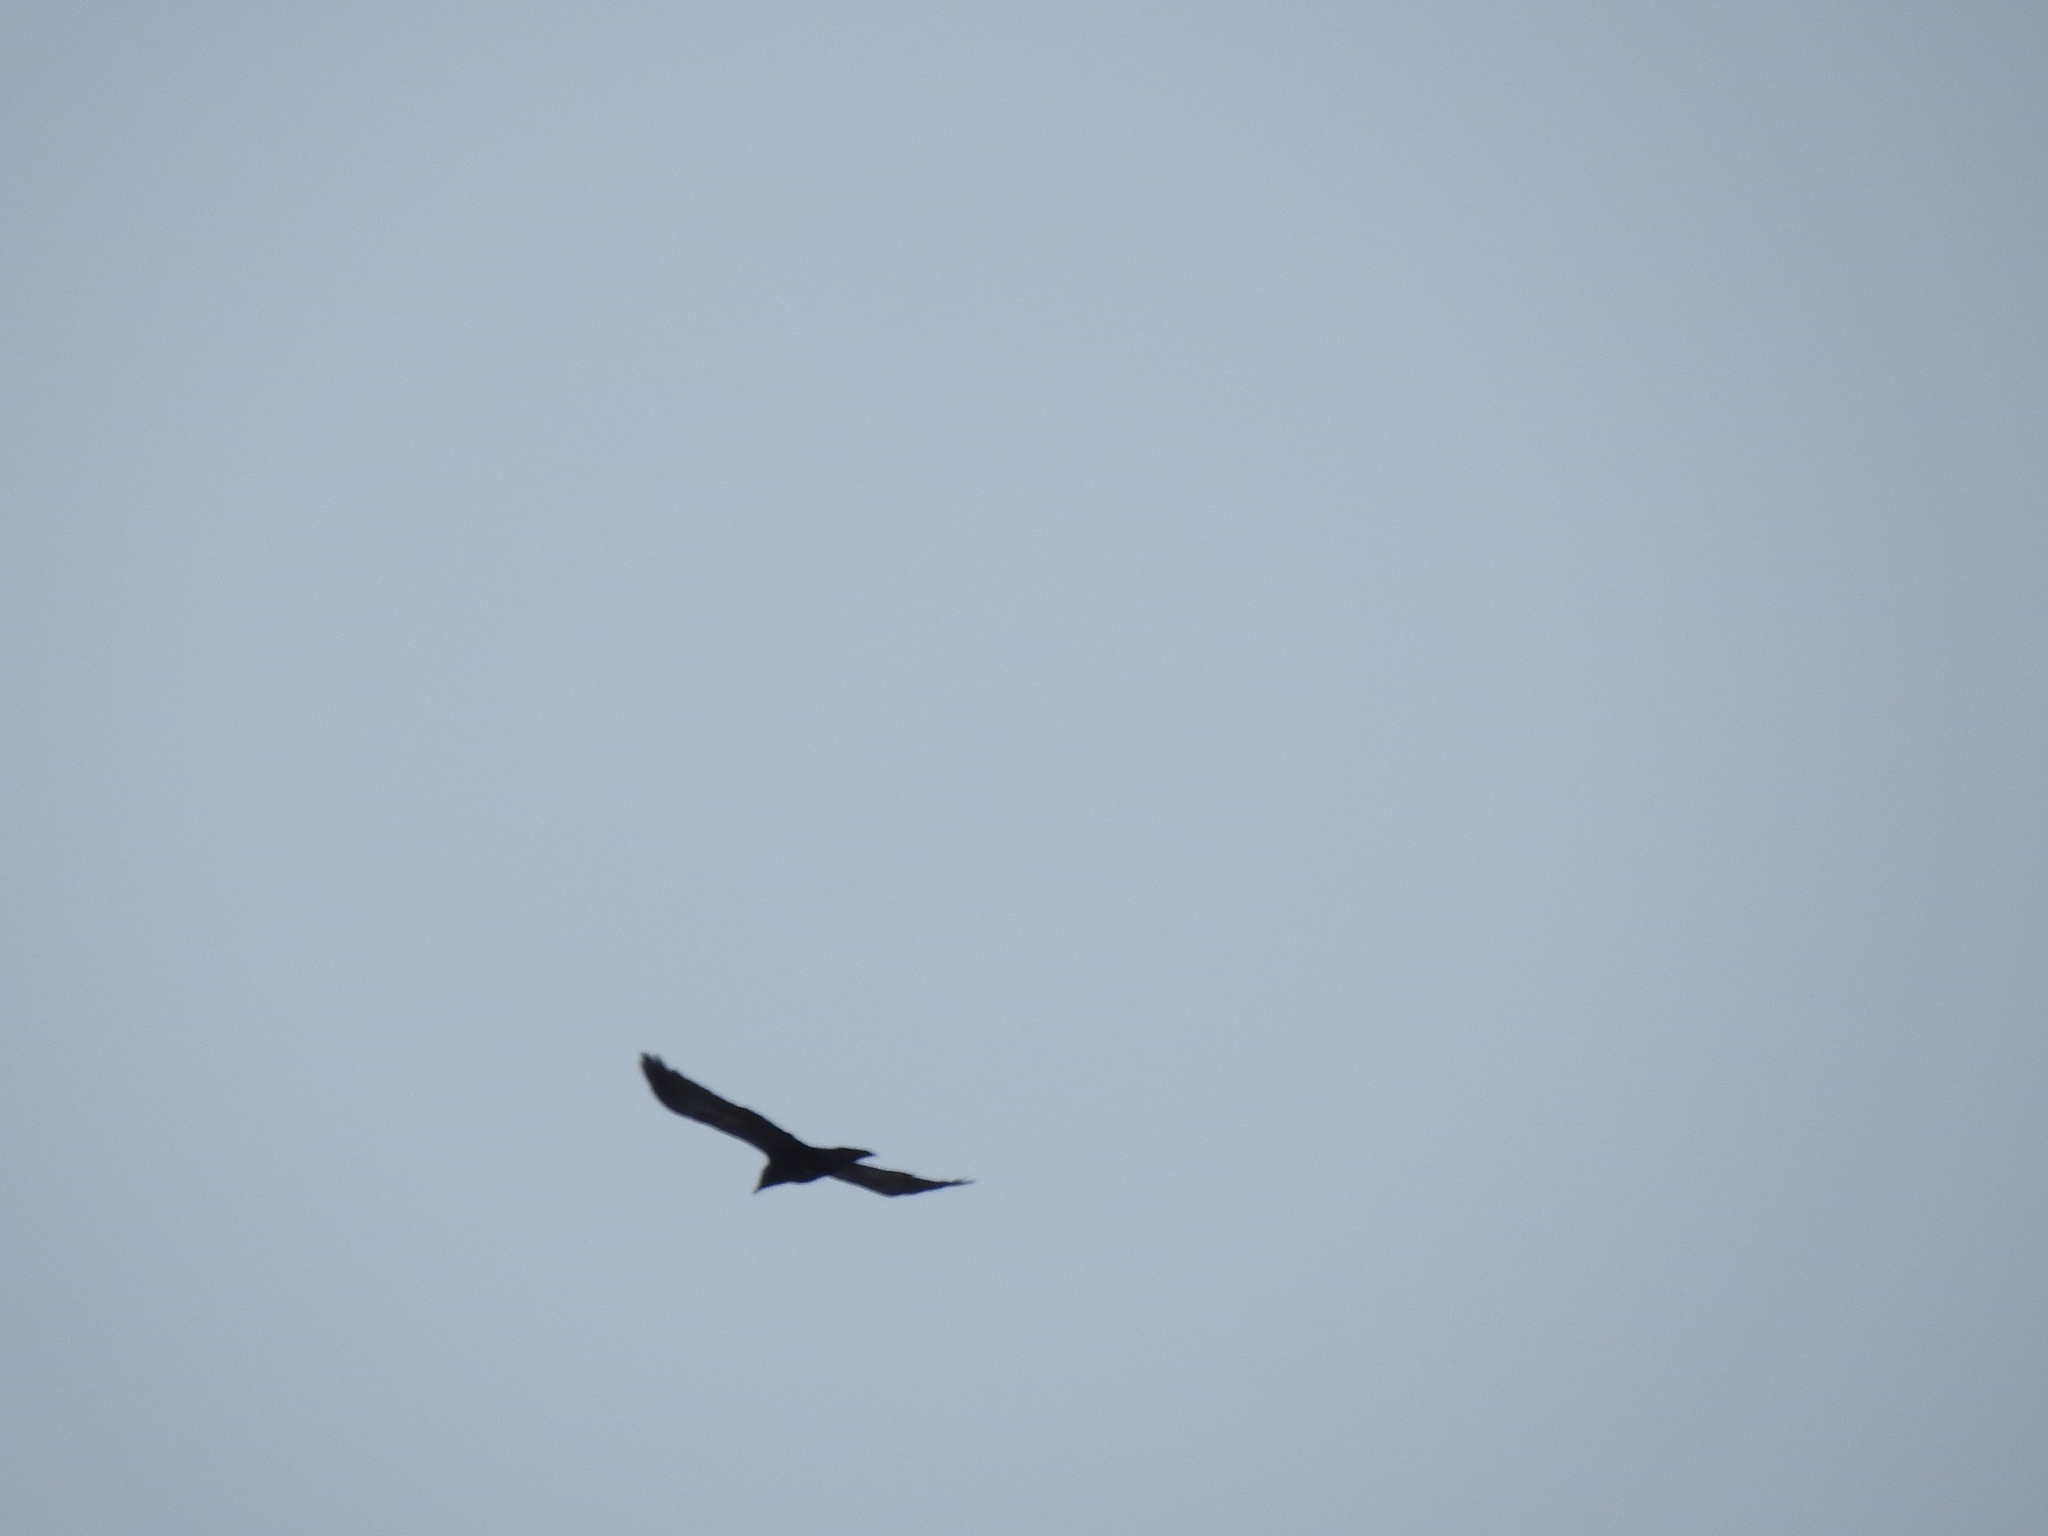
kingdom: Animalia
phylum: Chordata
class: Aves
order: Passeriformes
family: Corvidae
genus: Corvus
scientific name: Corvus corax
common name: Common raven
